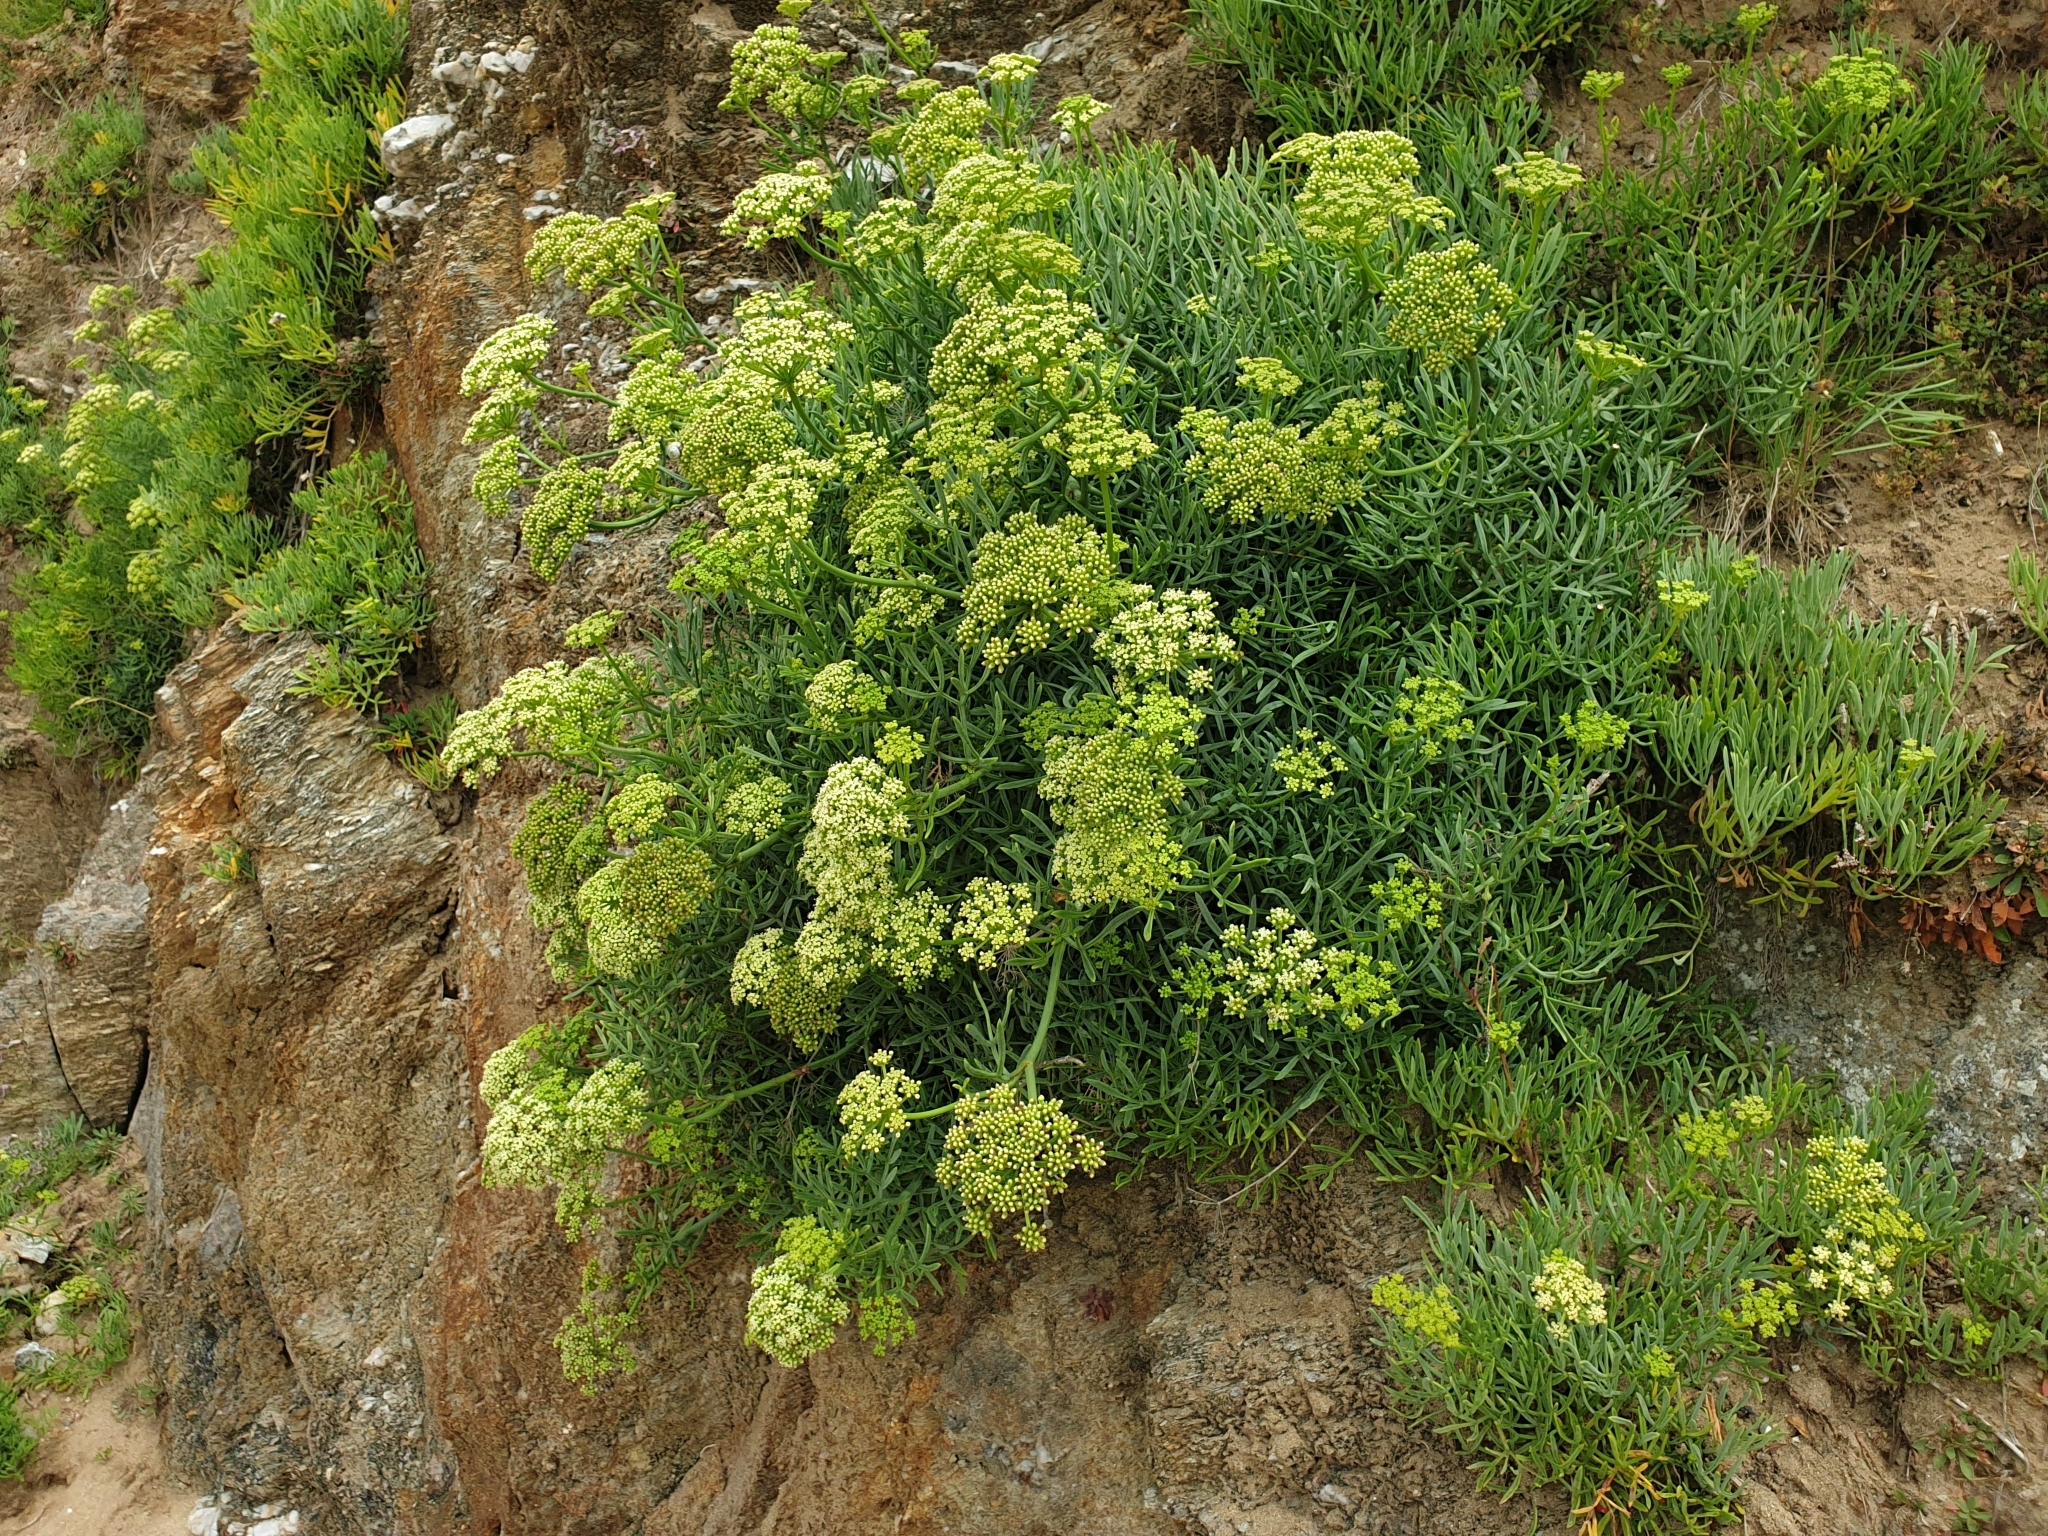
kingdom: Plantae
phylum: Tracheophyta
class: Magnoliopsida
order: Apiales
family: Apiaceae
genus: Crithmum
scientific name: Crithmum maritimum
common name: Rock samphire
